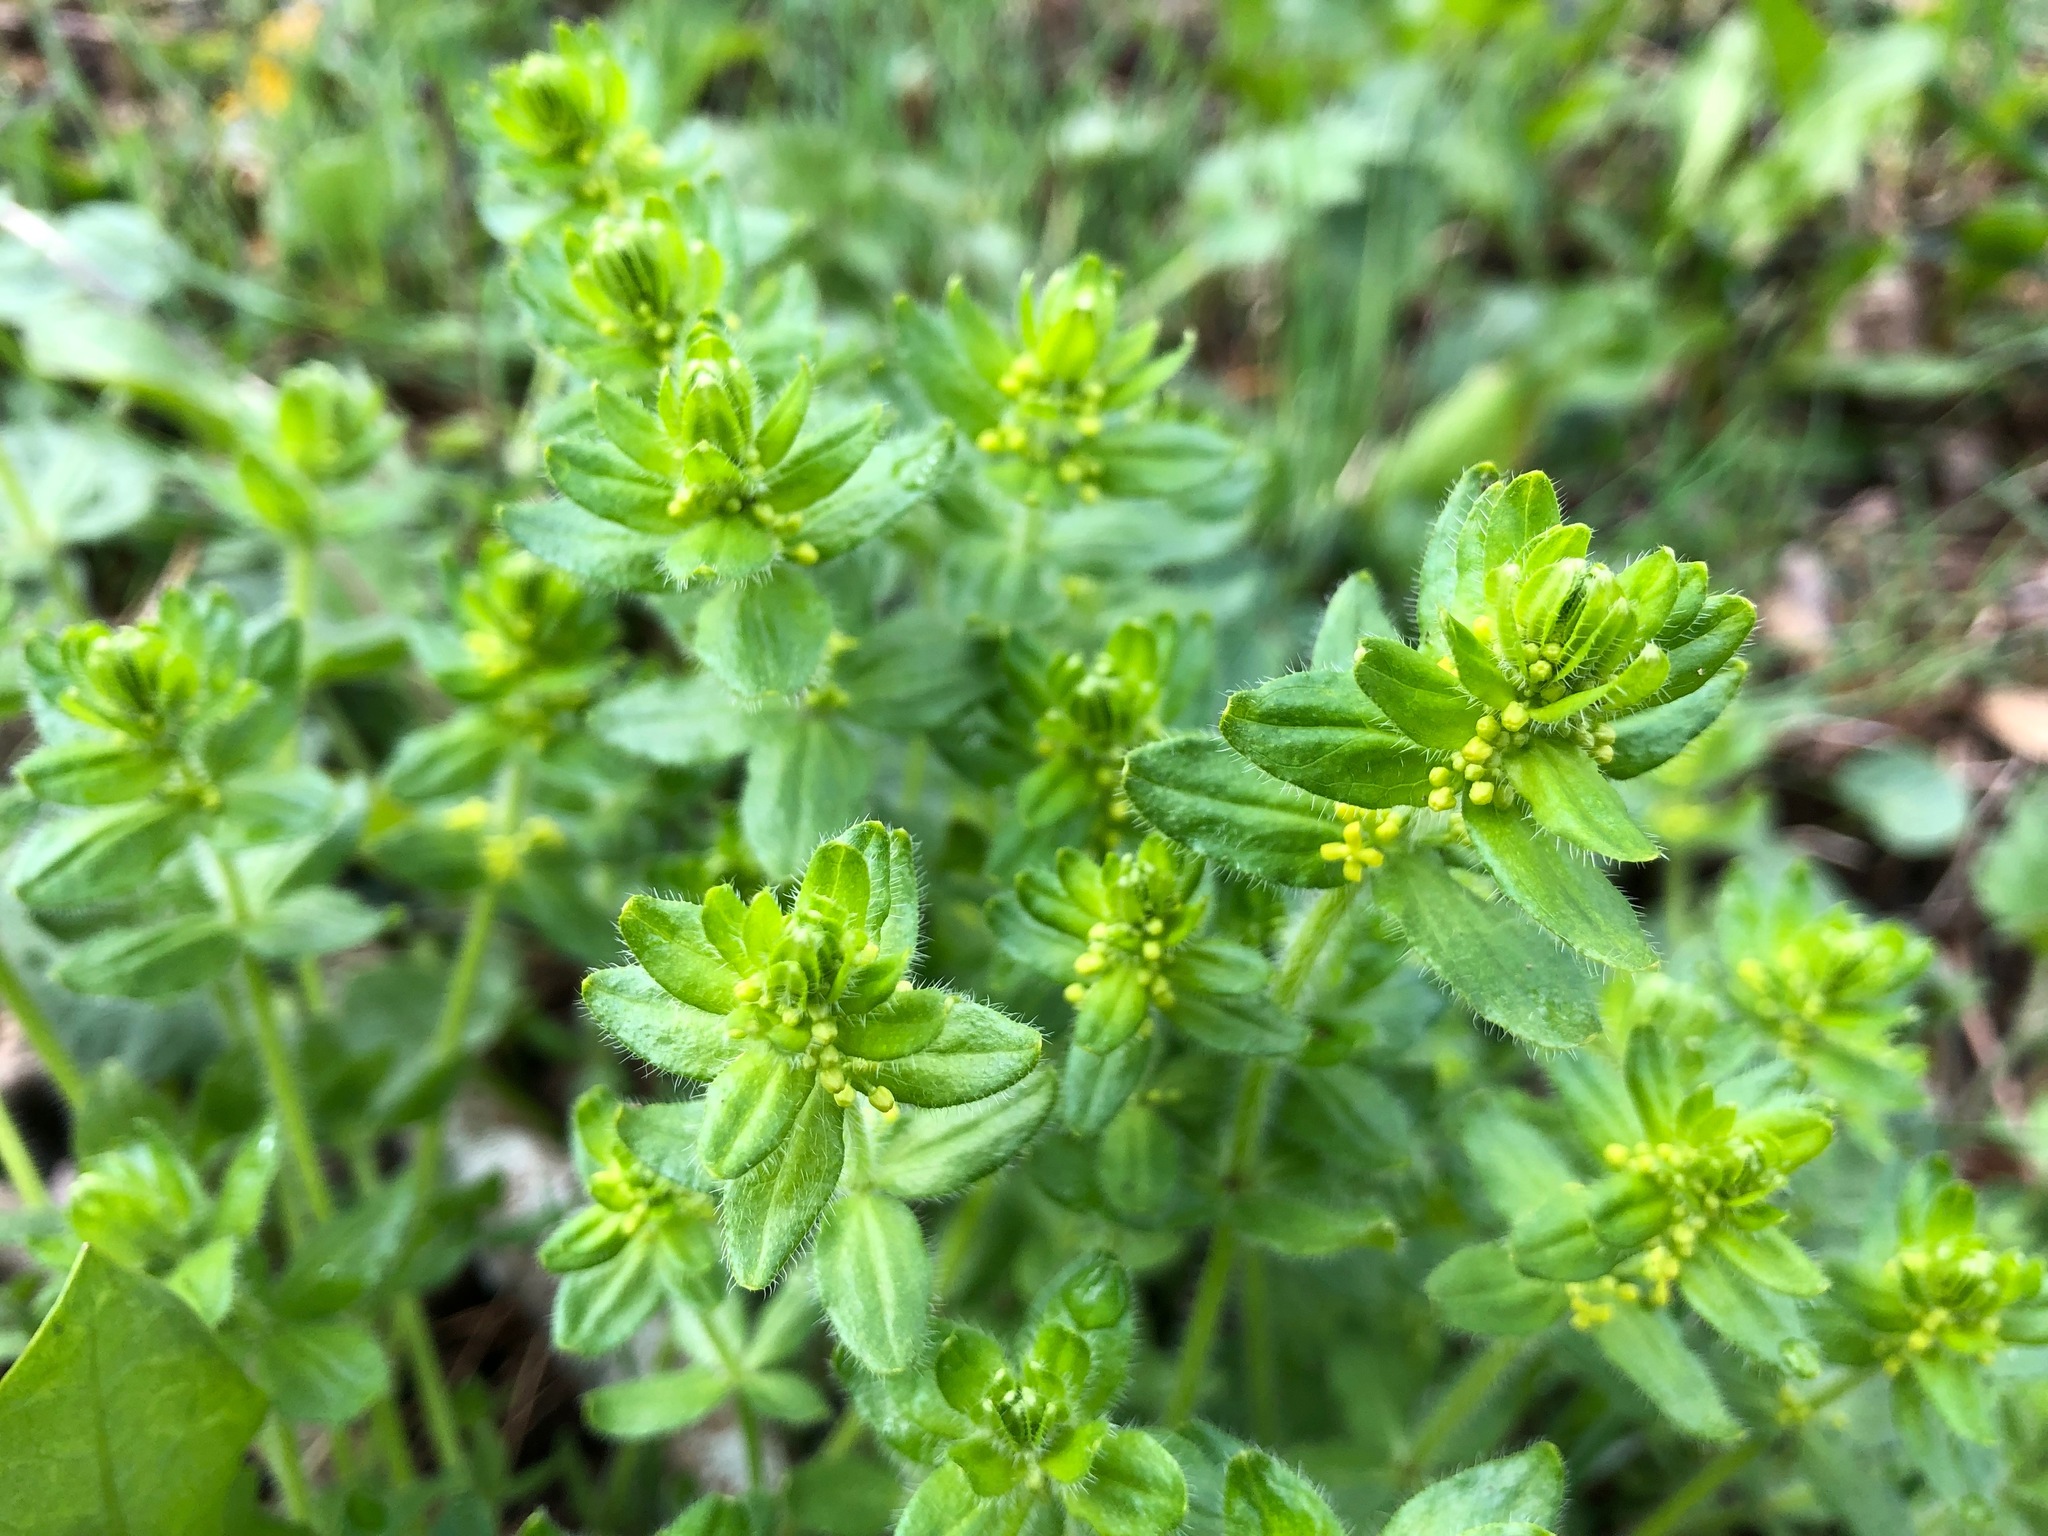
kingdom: Plantae
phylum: Tracheophyta
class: Magnoliopsida
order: Gentianales
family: Rubiaceae
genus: Cruciata
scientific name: Cruciata laevipes
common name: Crosswort
